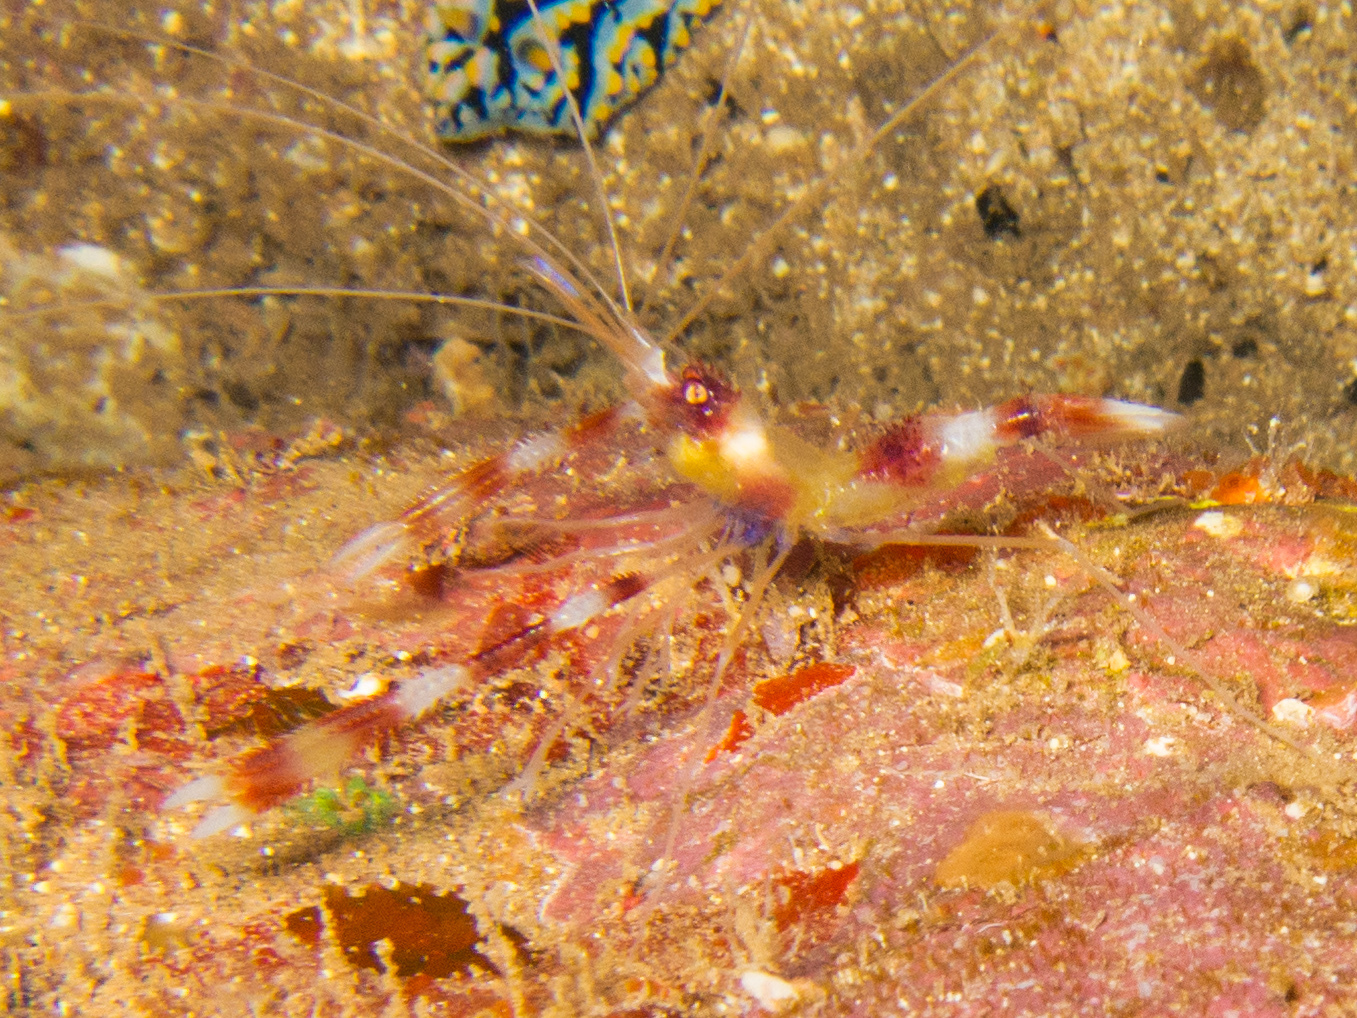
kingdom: Animalia
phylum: Arthropoda
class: Malacostraca
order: Decapoda
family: Stenopodidae
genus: Stenopus
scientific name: Stenopus hispidus
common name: Banded coral shrimp
